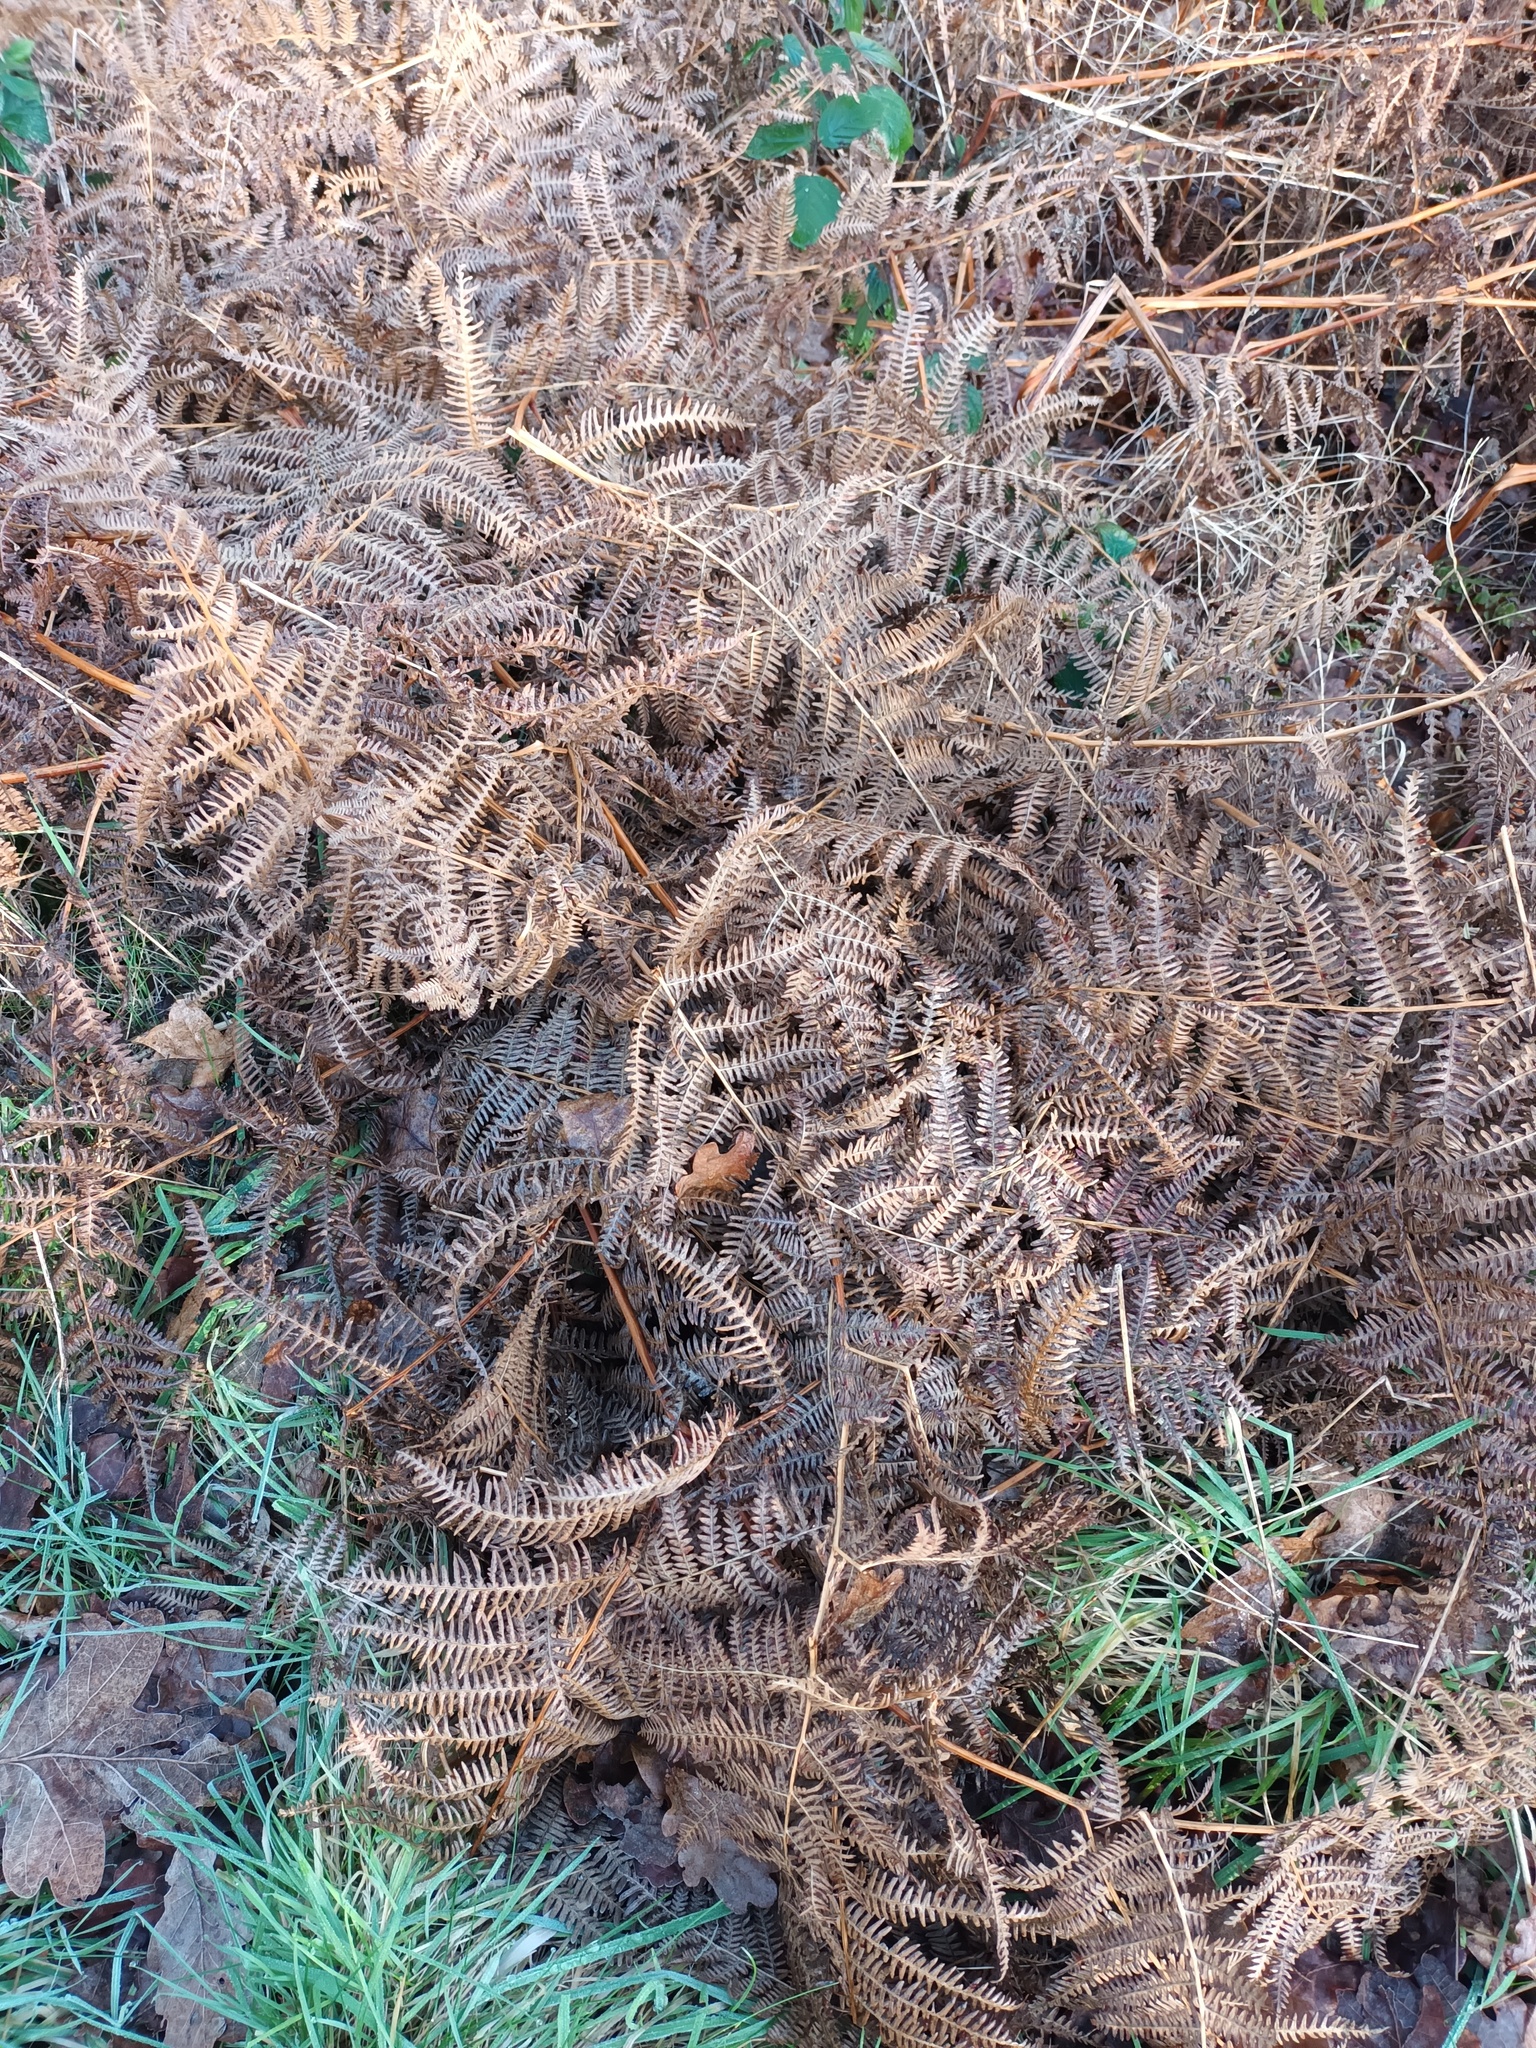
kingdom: Plantae
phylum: Tracheophyta
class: Polypodiopsida
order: Polypodiales
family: Dennstaedtiaceae
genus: Pteridium
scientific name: Pteridium aquilinum
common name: Bracken
